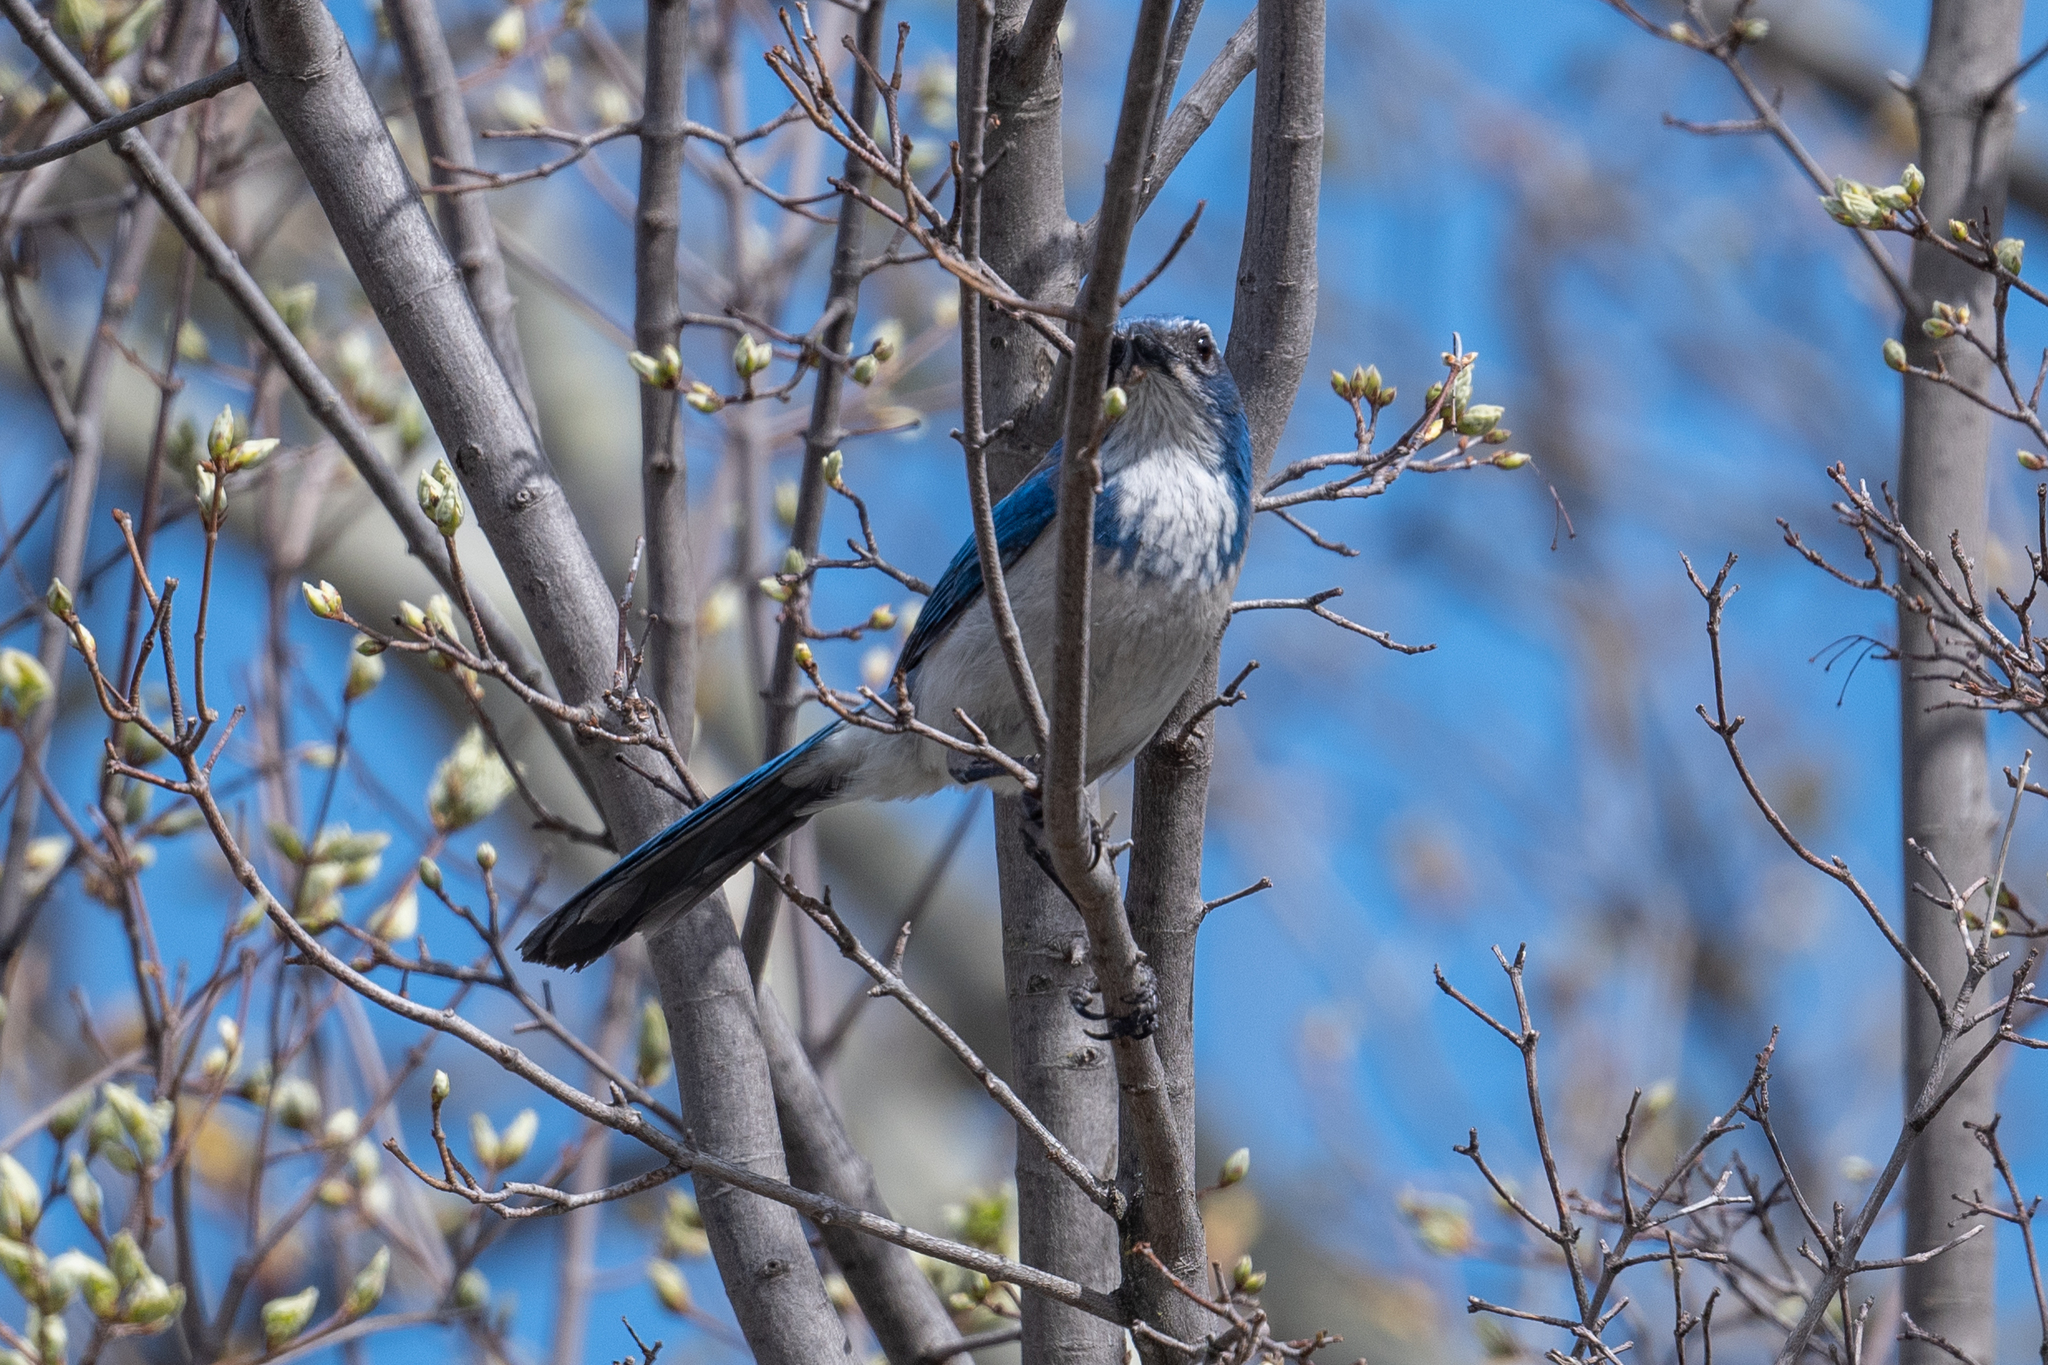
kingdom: Animalia
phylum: Chordata
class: Aves
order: Passeriformes
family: Corvidae
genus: Aphelocoma
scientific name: Aphelocoma californica
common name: California scrub-jay
